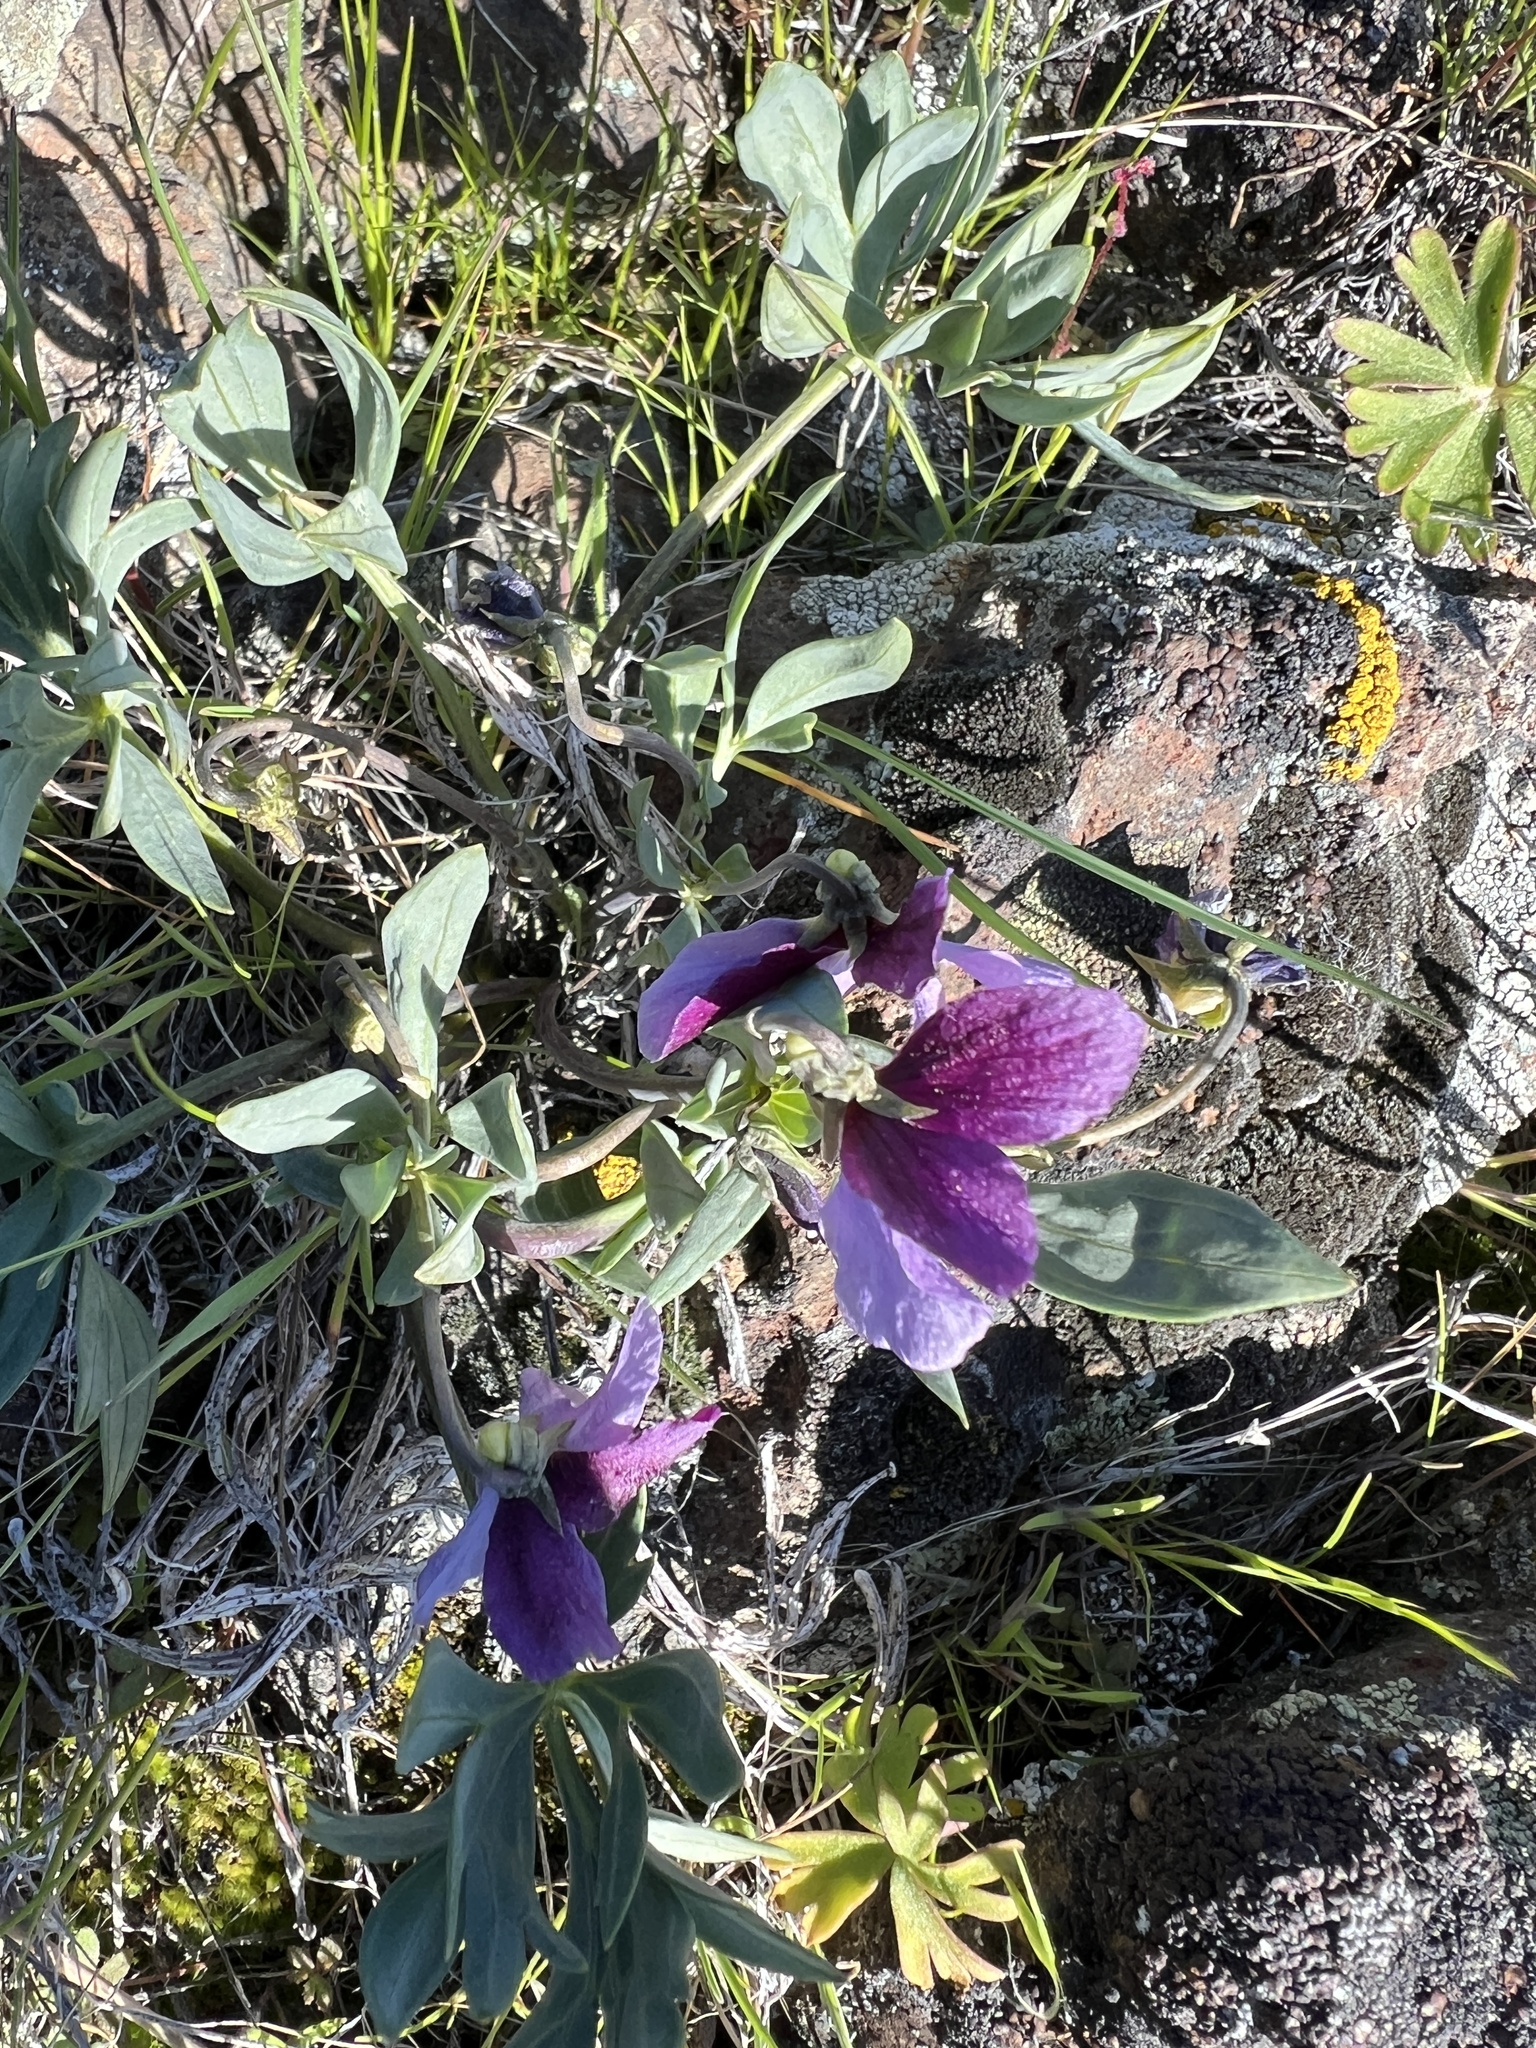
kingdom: Plantae
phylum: Tracheophyta
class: Magnoliopsida
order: Malpighiales
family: Violaceae
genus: Viola
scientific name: Viola trinervata
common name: Sagebrush violet
